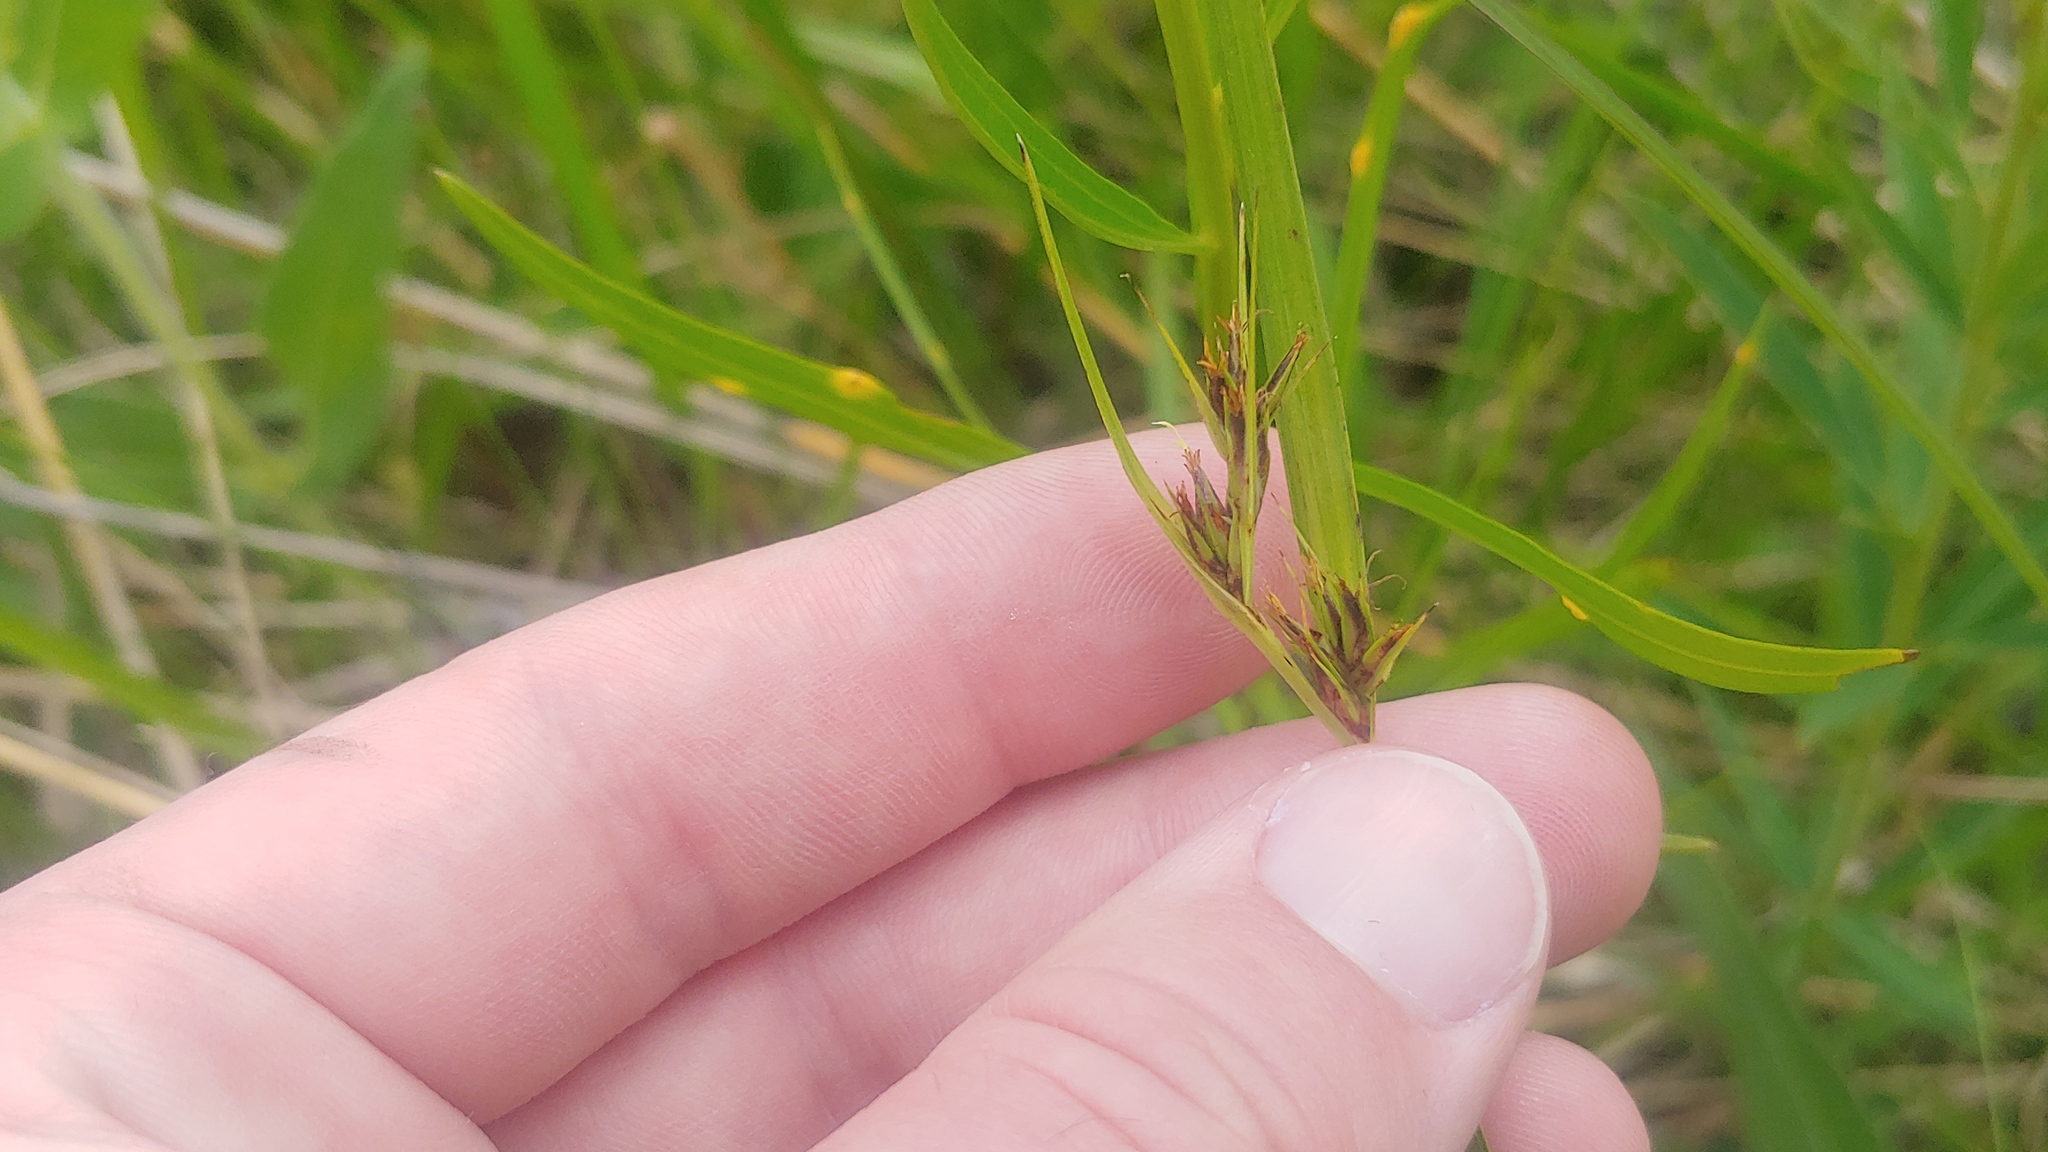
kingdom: Plantae
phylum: Tracheophyta
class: Liliopsida
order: Poales
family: Cyperaceae
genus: Scleria
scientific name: Scleria triglomerata
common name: Whip nutrush
